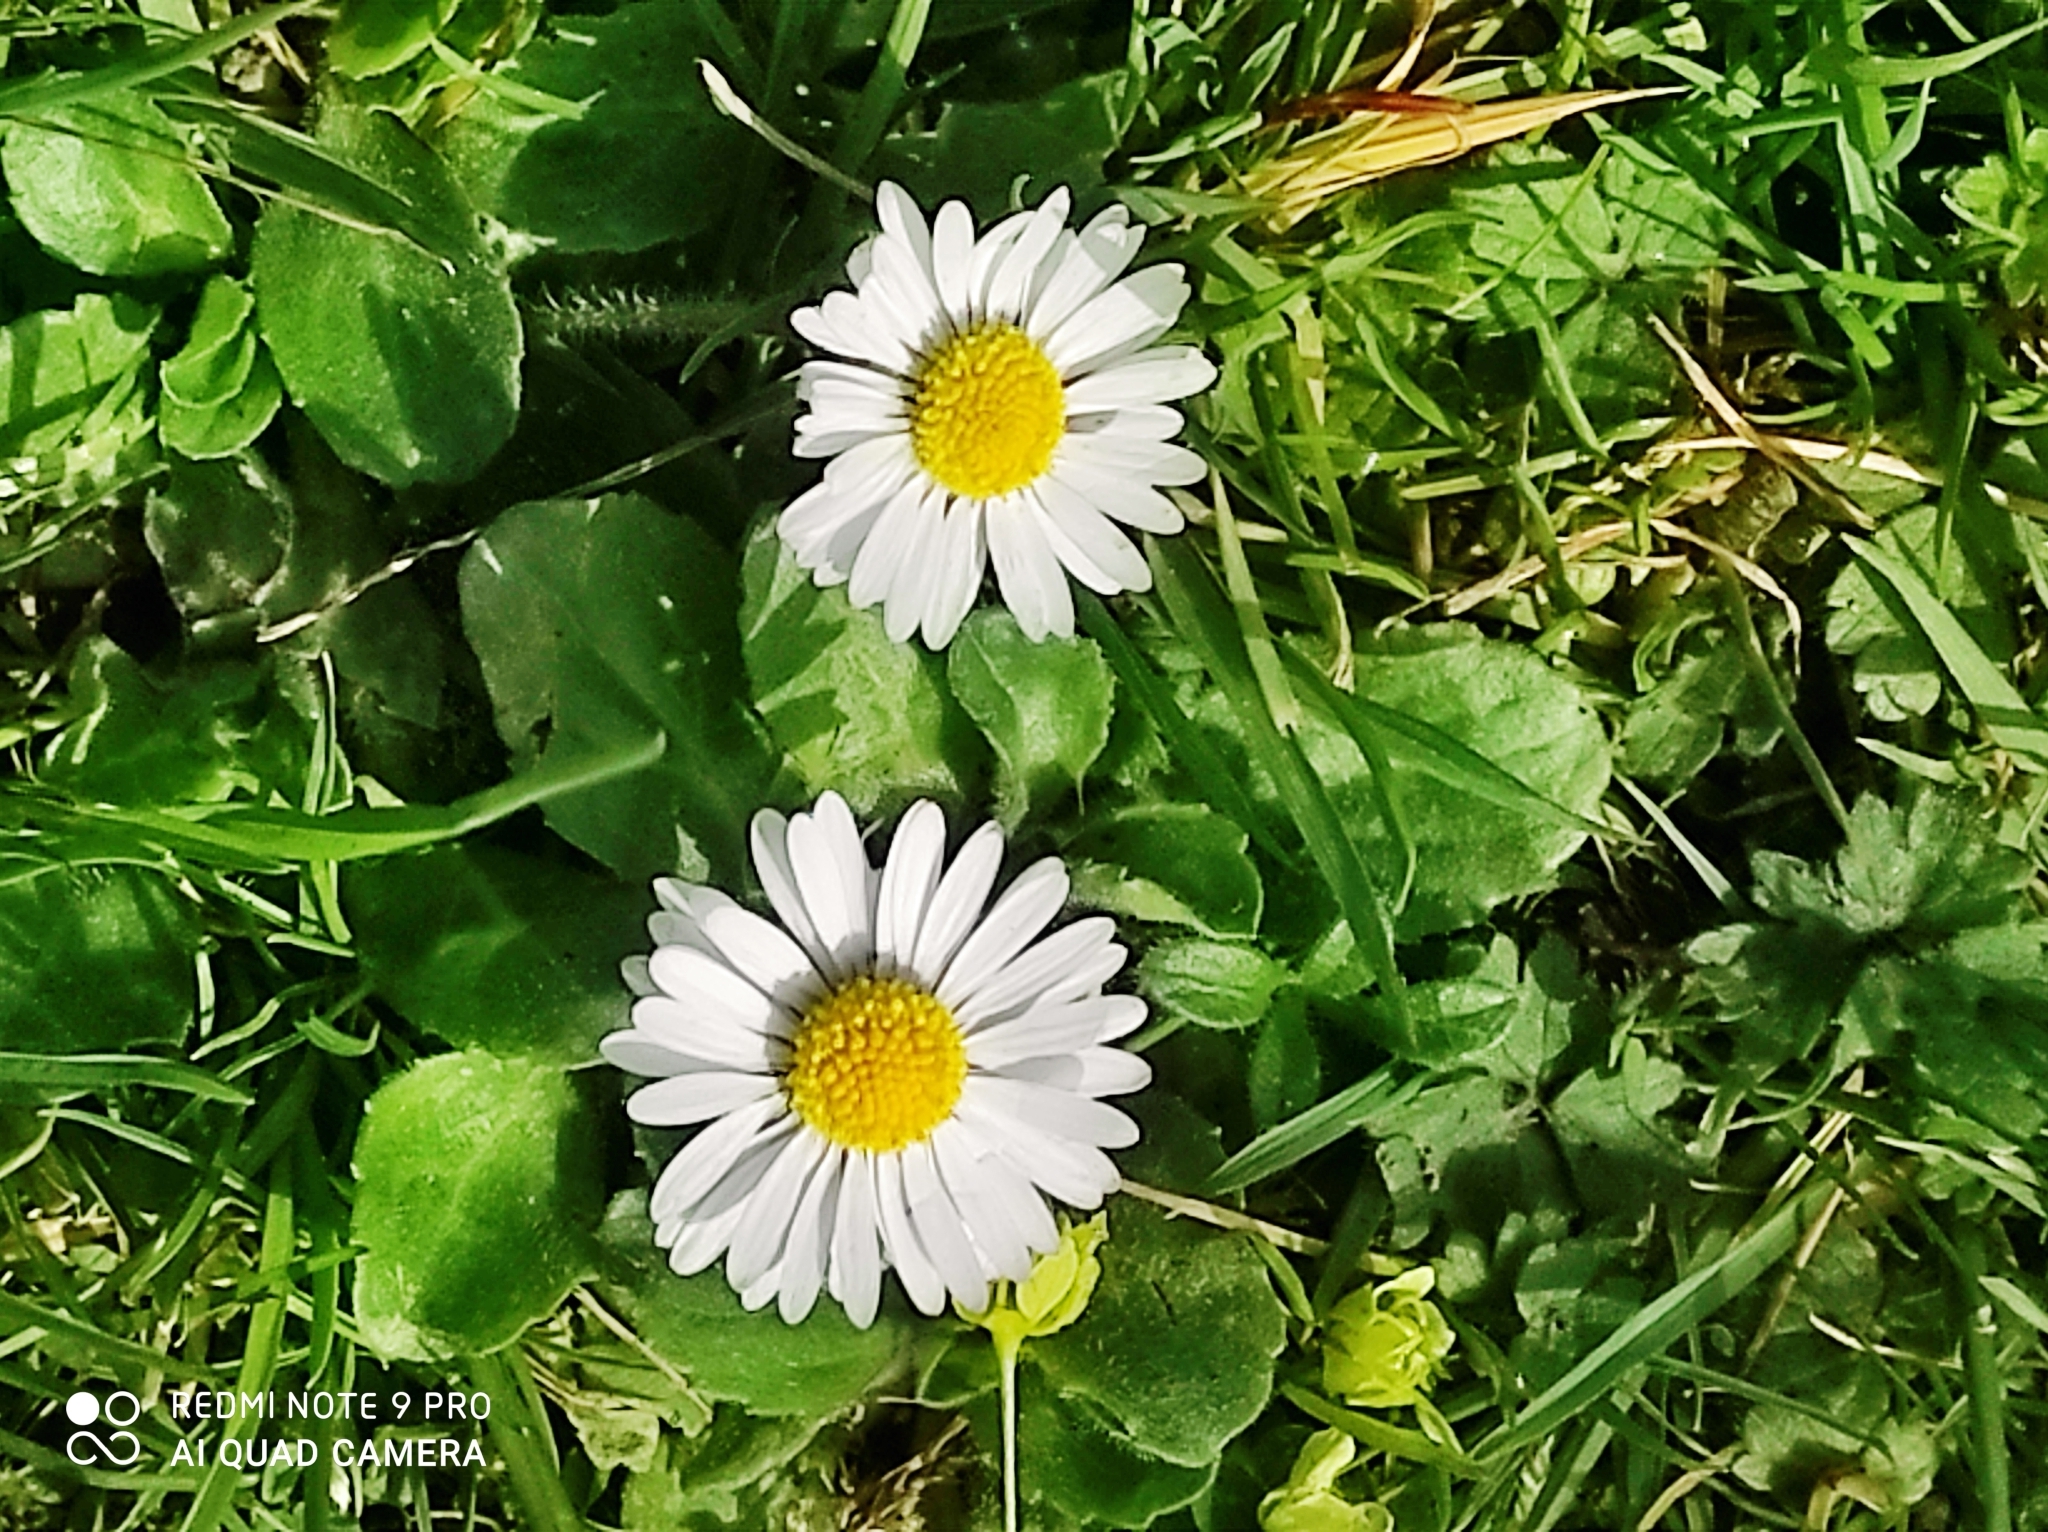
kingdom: Plantae
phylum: Tracheophyta
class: Magnoliopsida
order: Asterales
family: Asteraceae
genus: Bellis
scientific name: Bellis perennis
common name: Lawndaisy
